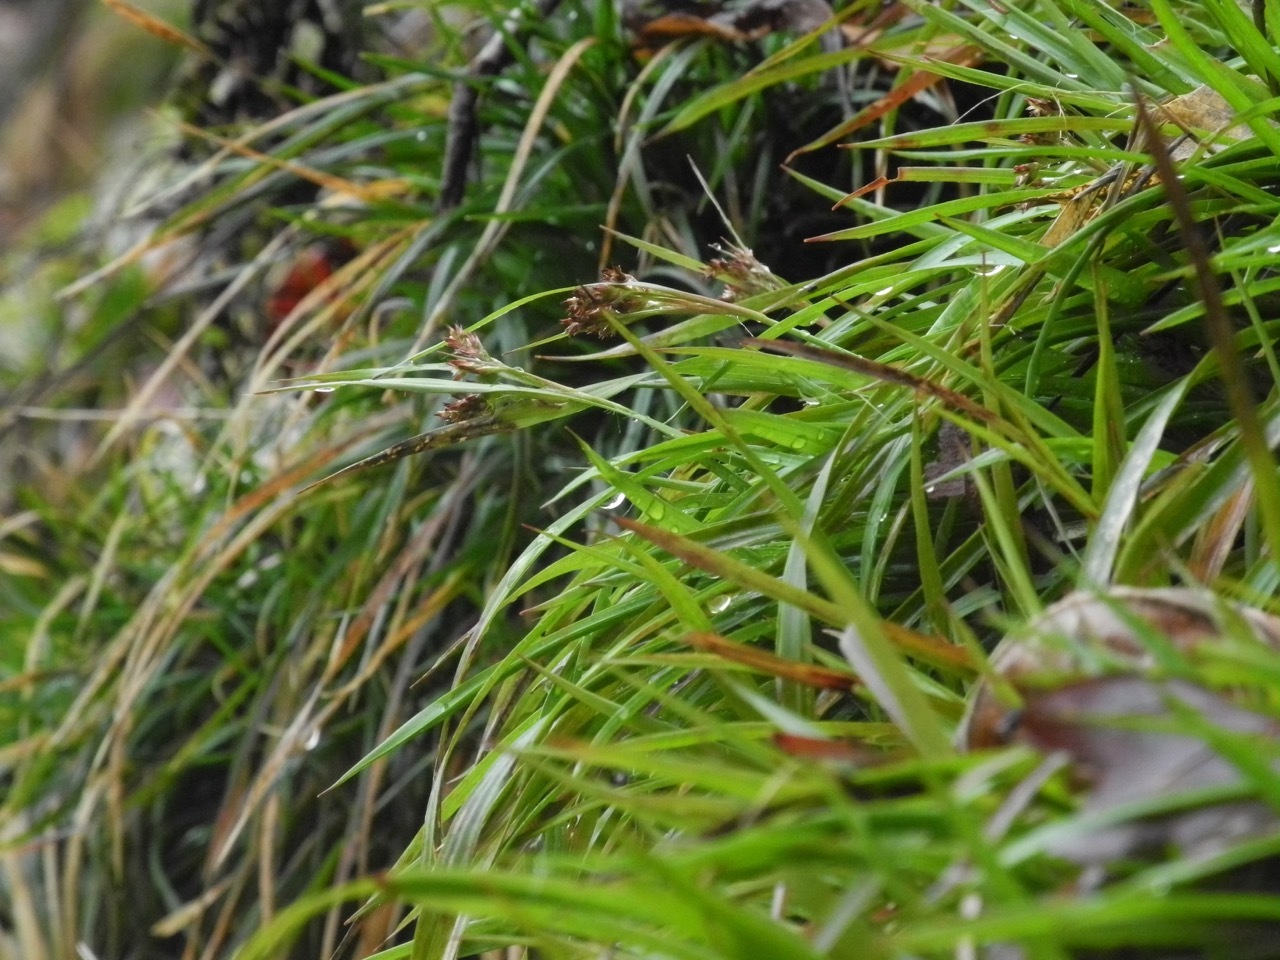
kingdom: Plantae
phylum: Tracheophyta
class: Liliopsida
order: Poales
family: Juncaceae
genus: Luzula
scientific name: Luzula echinata
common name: Hedgehog woodrush
